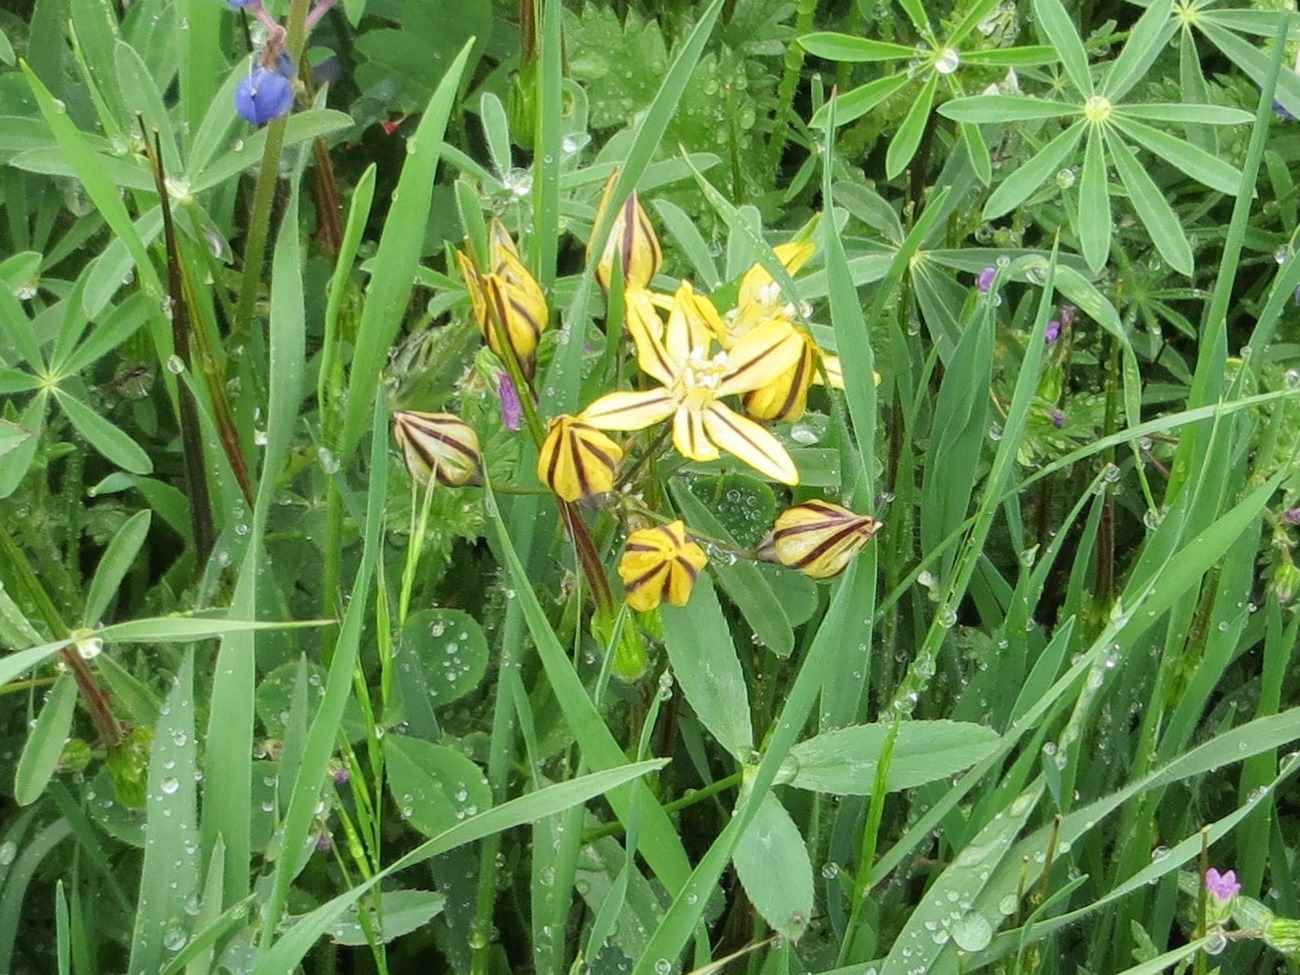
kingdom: Plantae
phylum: Tracheophyta
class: Liliopsida
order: Asparagales
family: Asparagaceae
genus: Triteleia
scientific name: Triteleia ixioides
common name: Yellow-brodiaea
